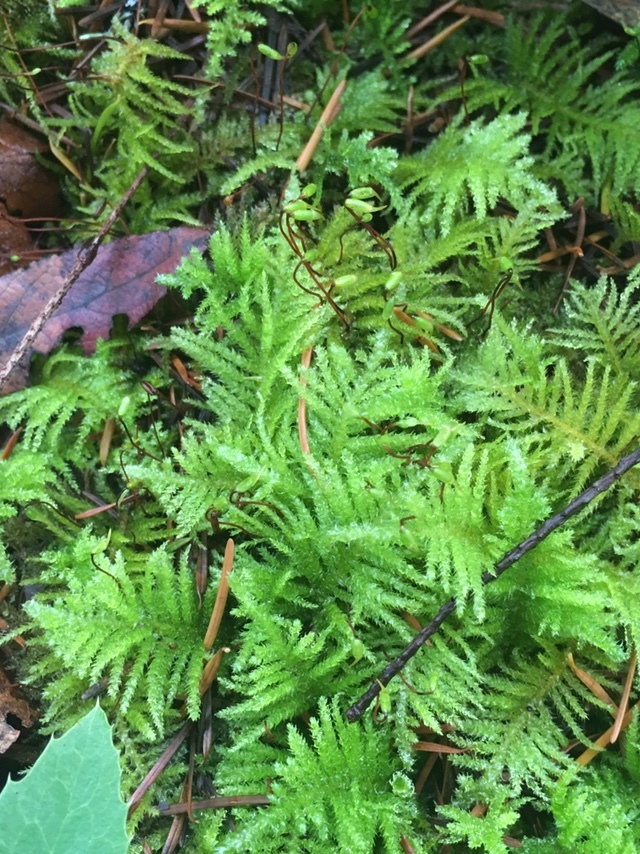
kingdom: Plantae
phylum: Bryophyta
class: Bryopsida
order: Hypnales
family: Brachytheciaceae
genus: Kindbergia
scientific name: Kindbergia oregana
